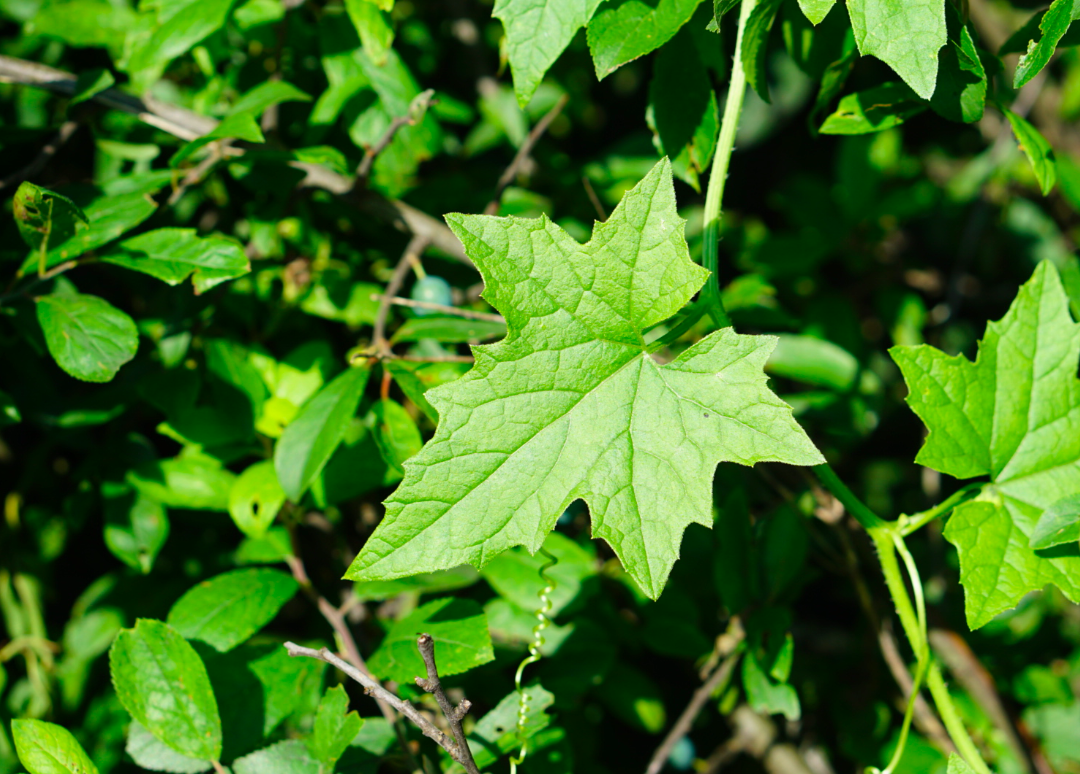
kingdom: Plantae
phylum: Tracheophyta
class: Magnoliopsida
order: Cucurbitales
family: Cucurbitaceae
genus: Bryonia
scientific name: Bryonia cretica
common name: Cretan bryony
